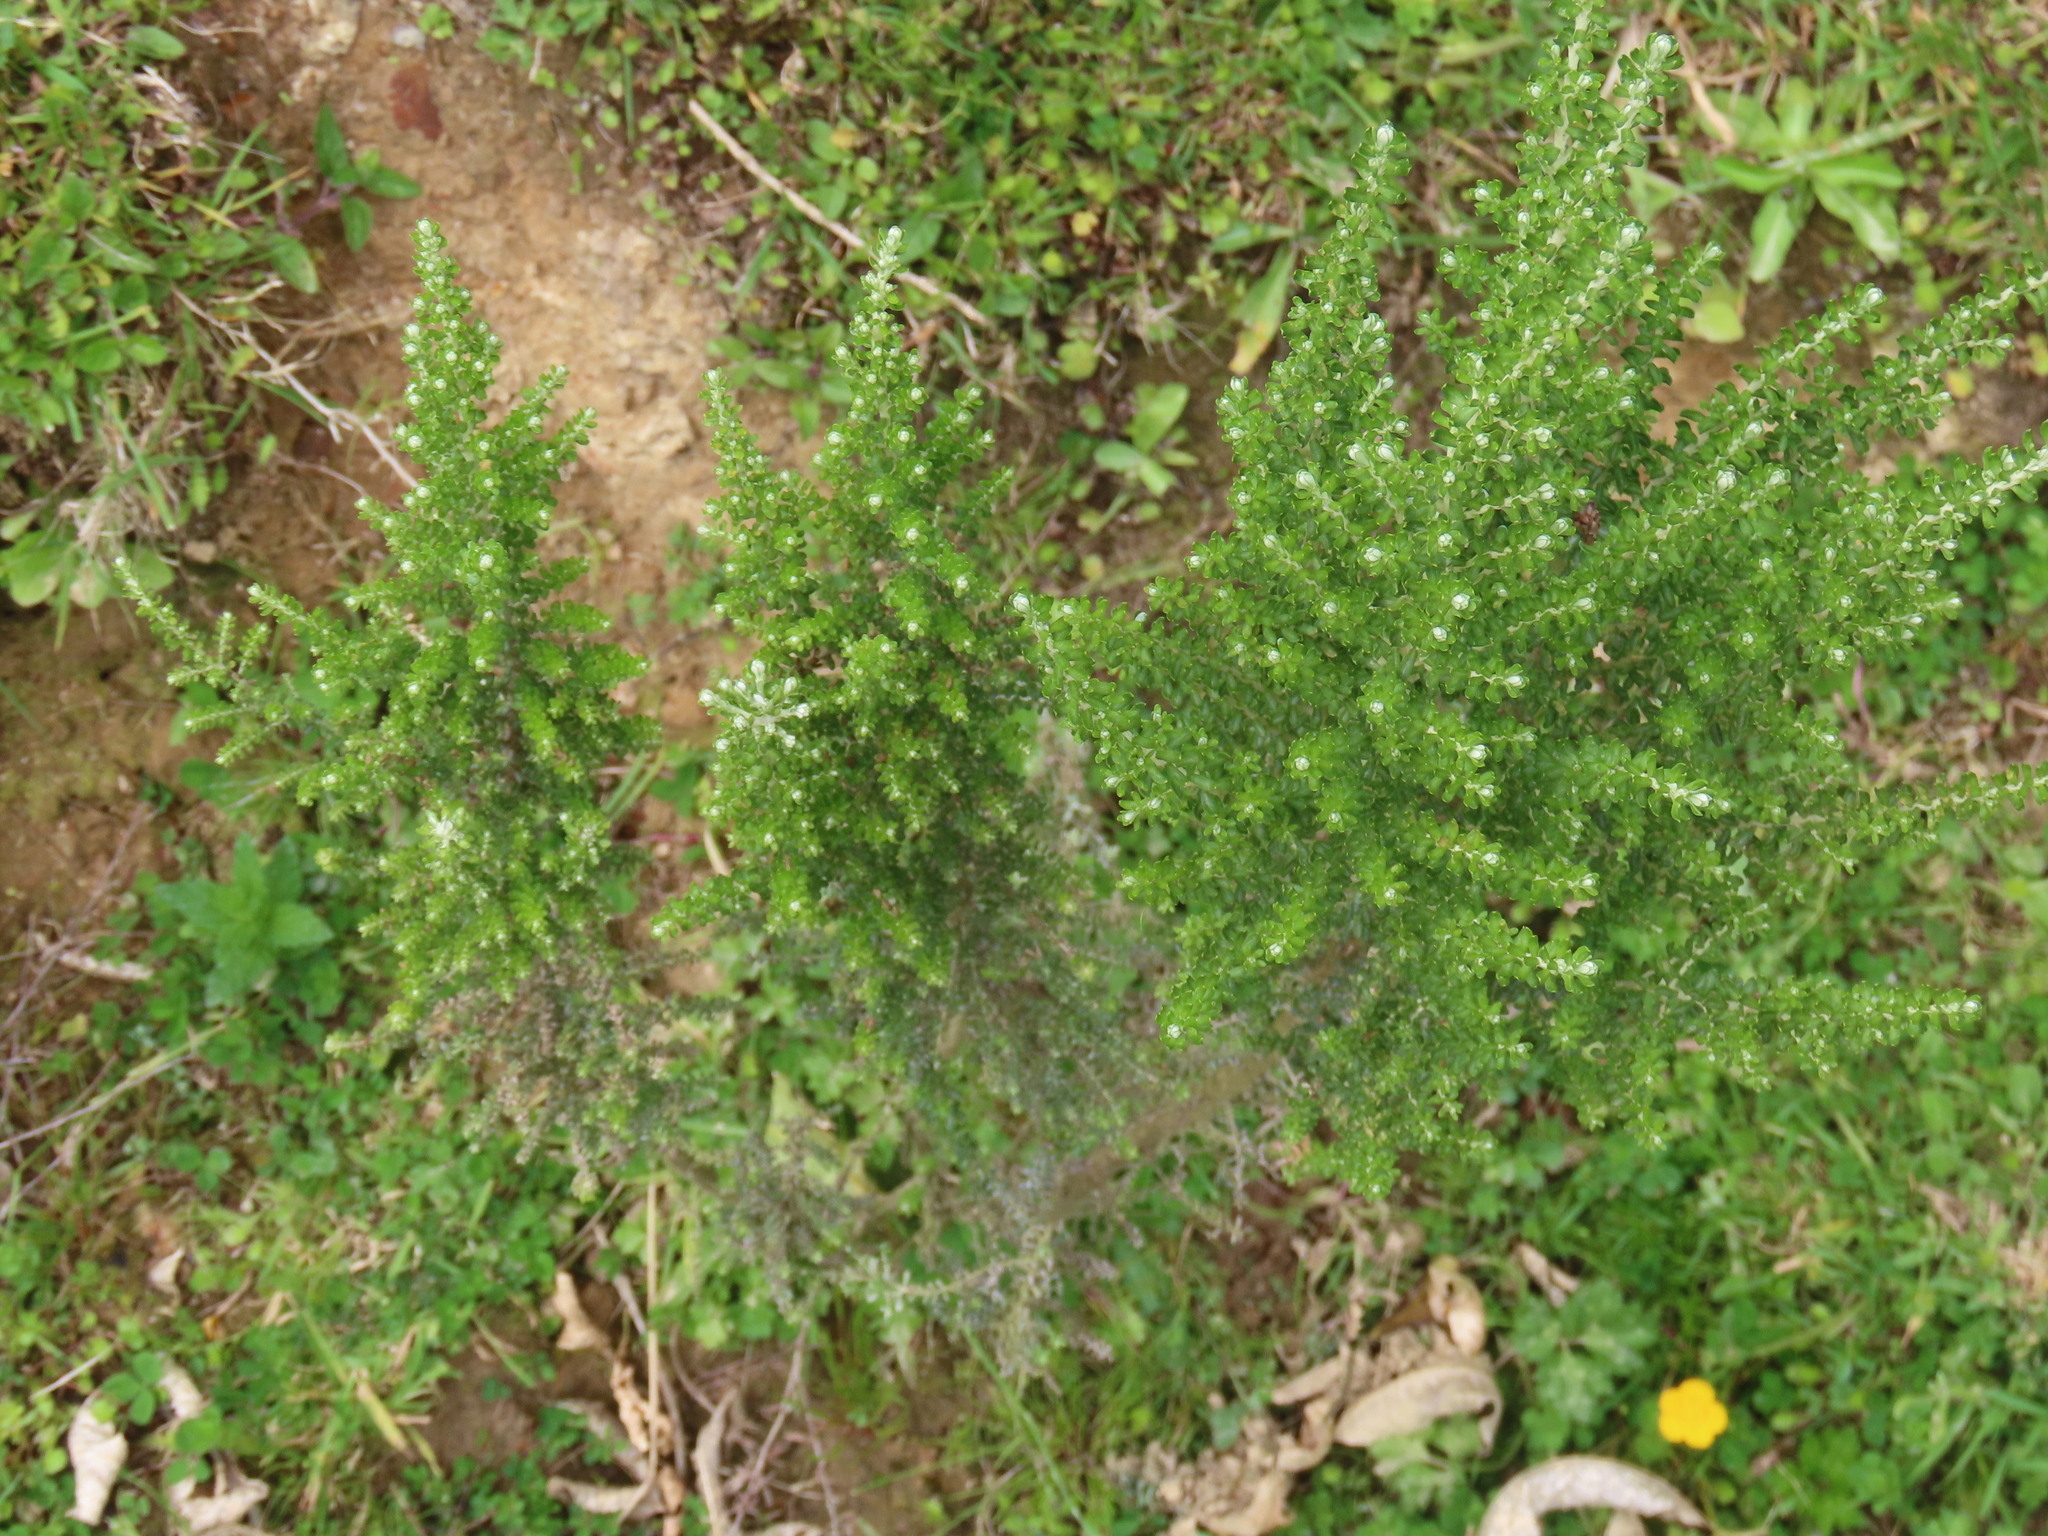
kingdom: Plantae
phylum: Tracheophyta
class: Magnoliopsida
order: Asterales
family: Asteraceae
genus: Ozothamnus
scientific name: Ozothamnus leptophyllus
